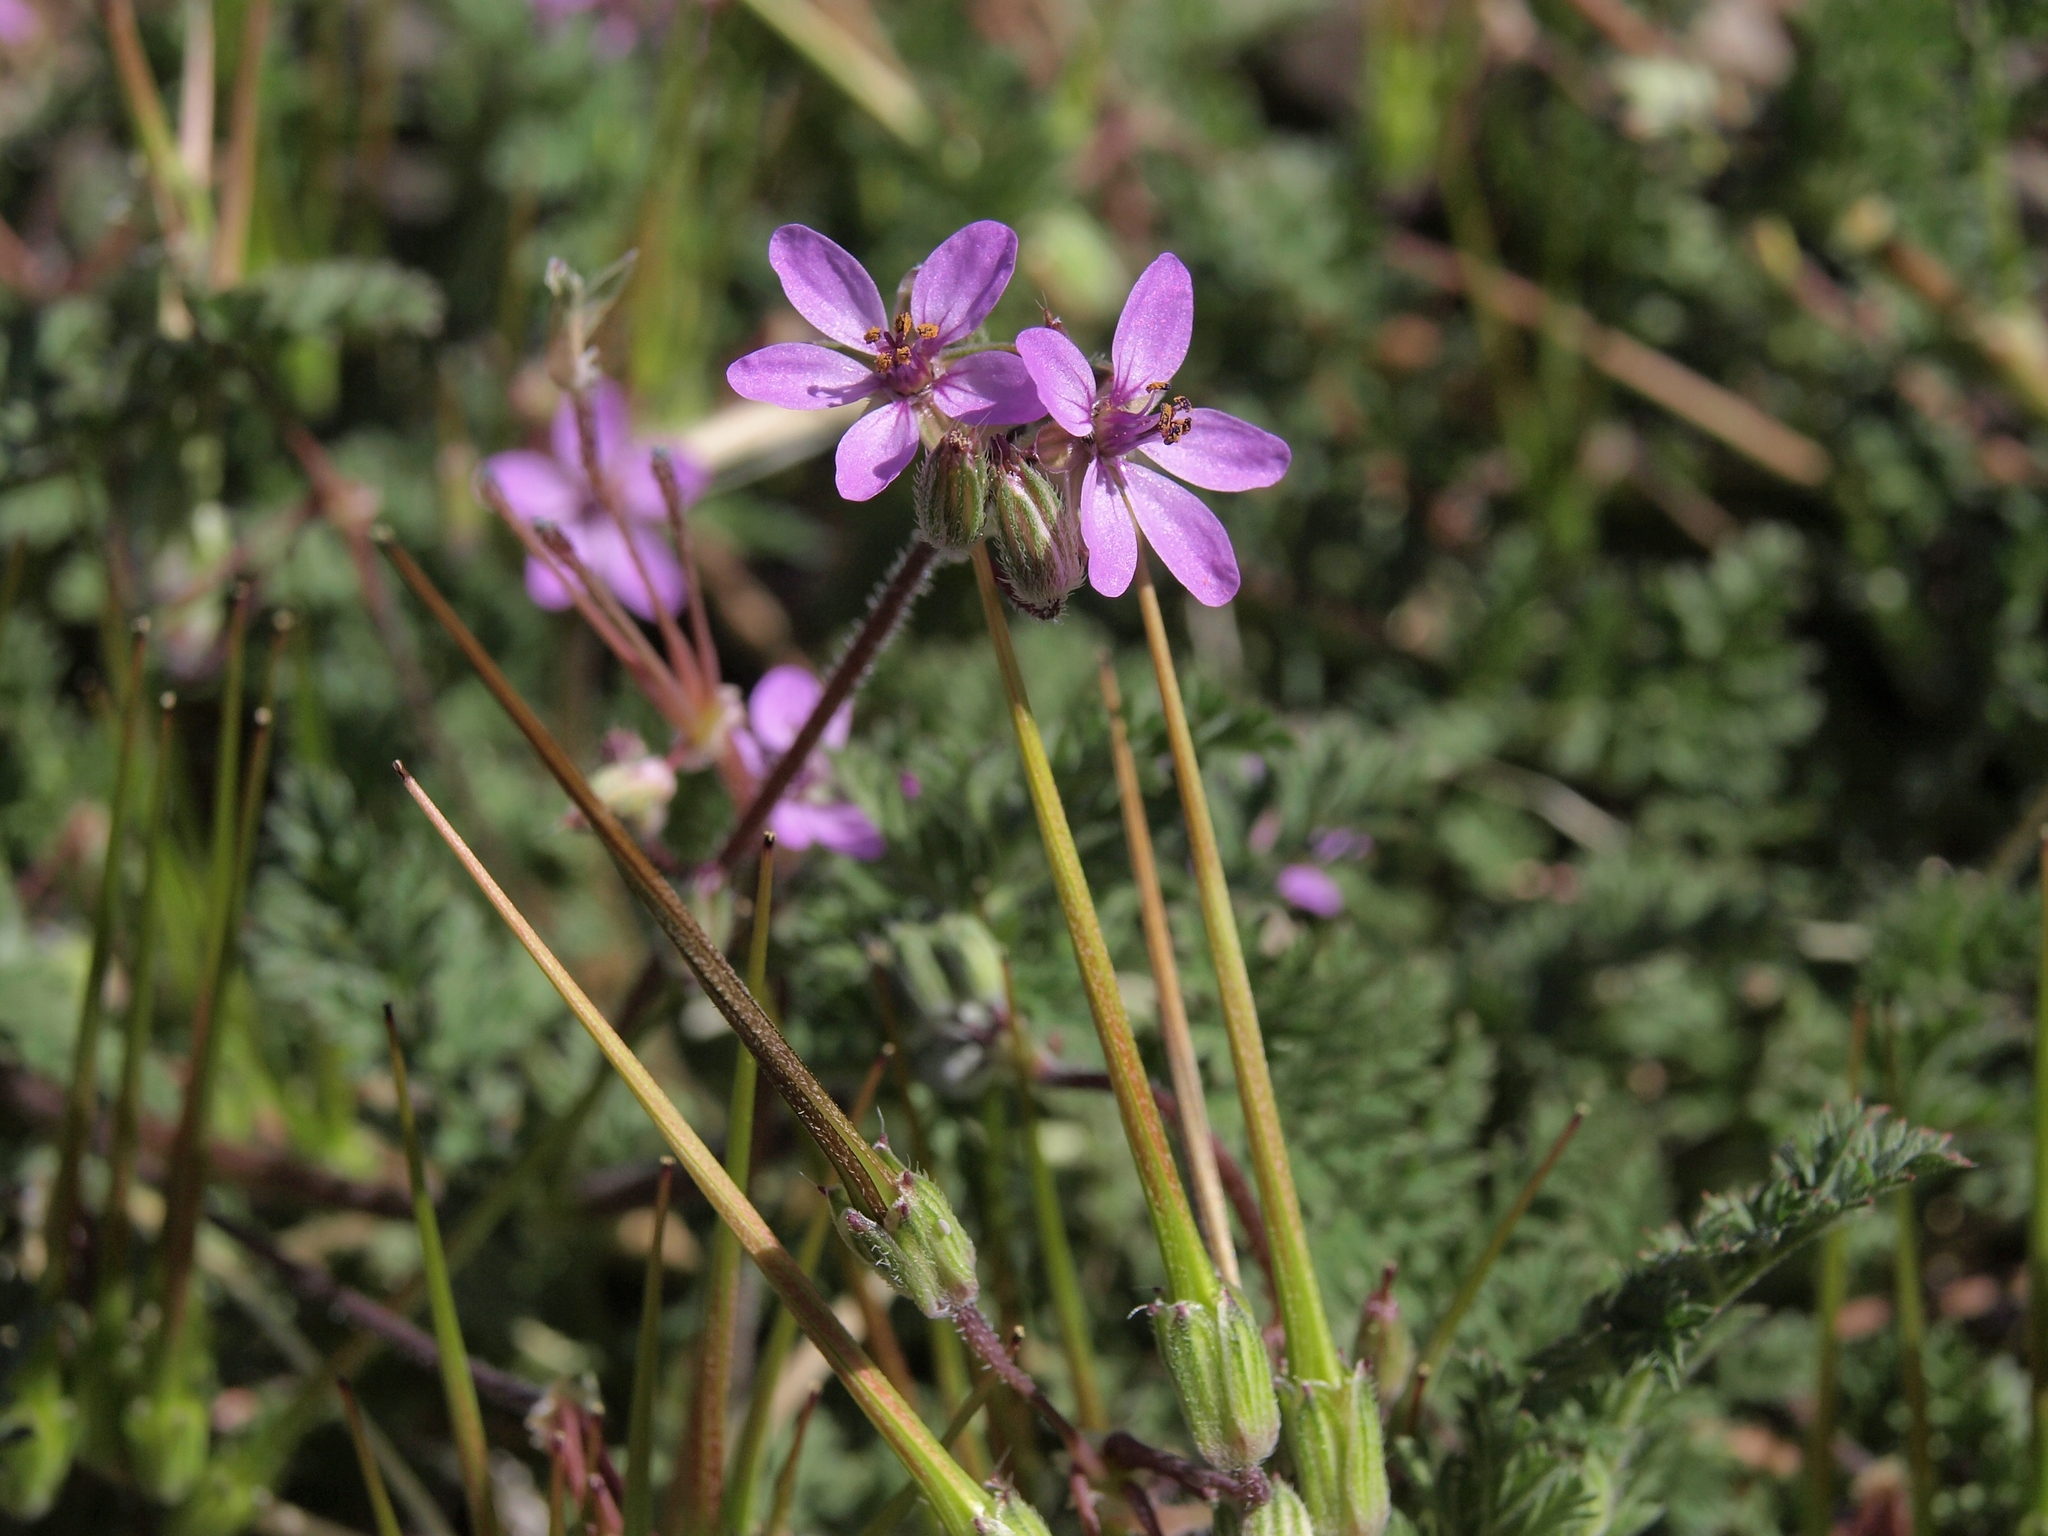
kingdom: Plantae
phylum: Tracheophyta
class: Magnoliopsida
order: Geraniales
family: Geraniaceae
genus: Erodium
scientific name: Erodium cicutarium
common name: Common stork's-bill
